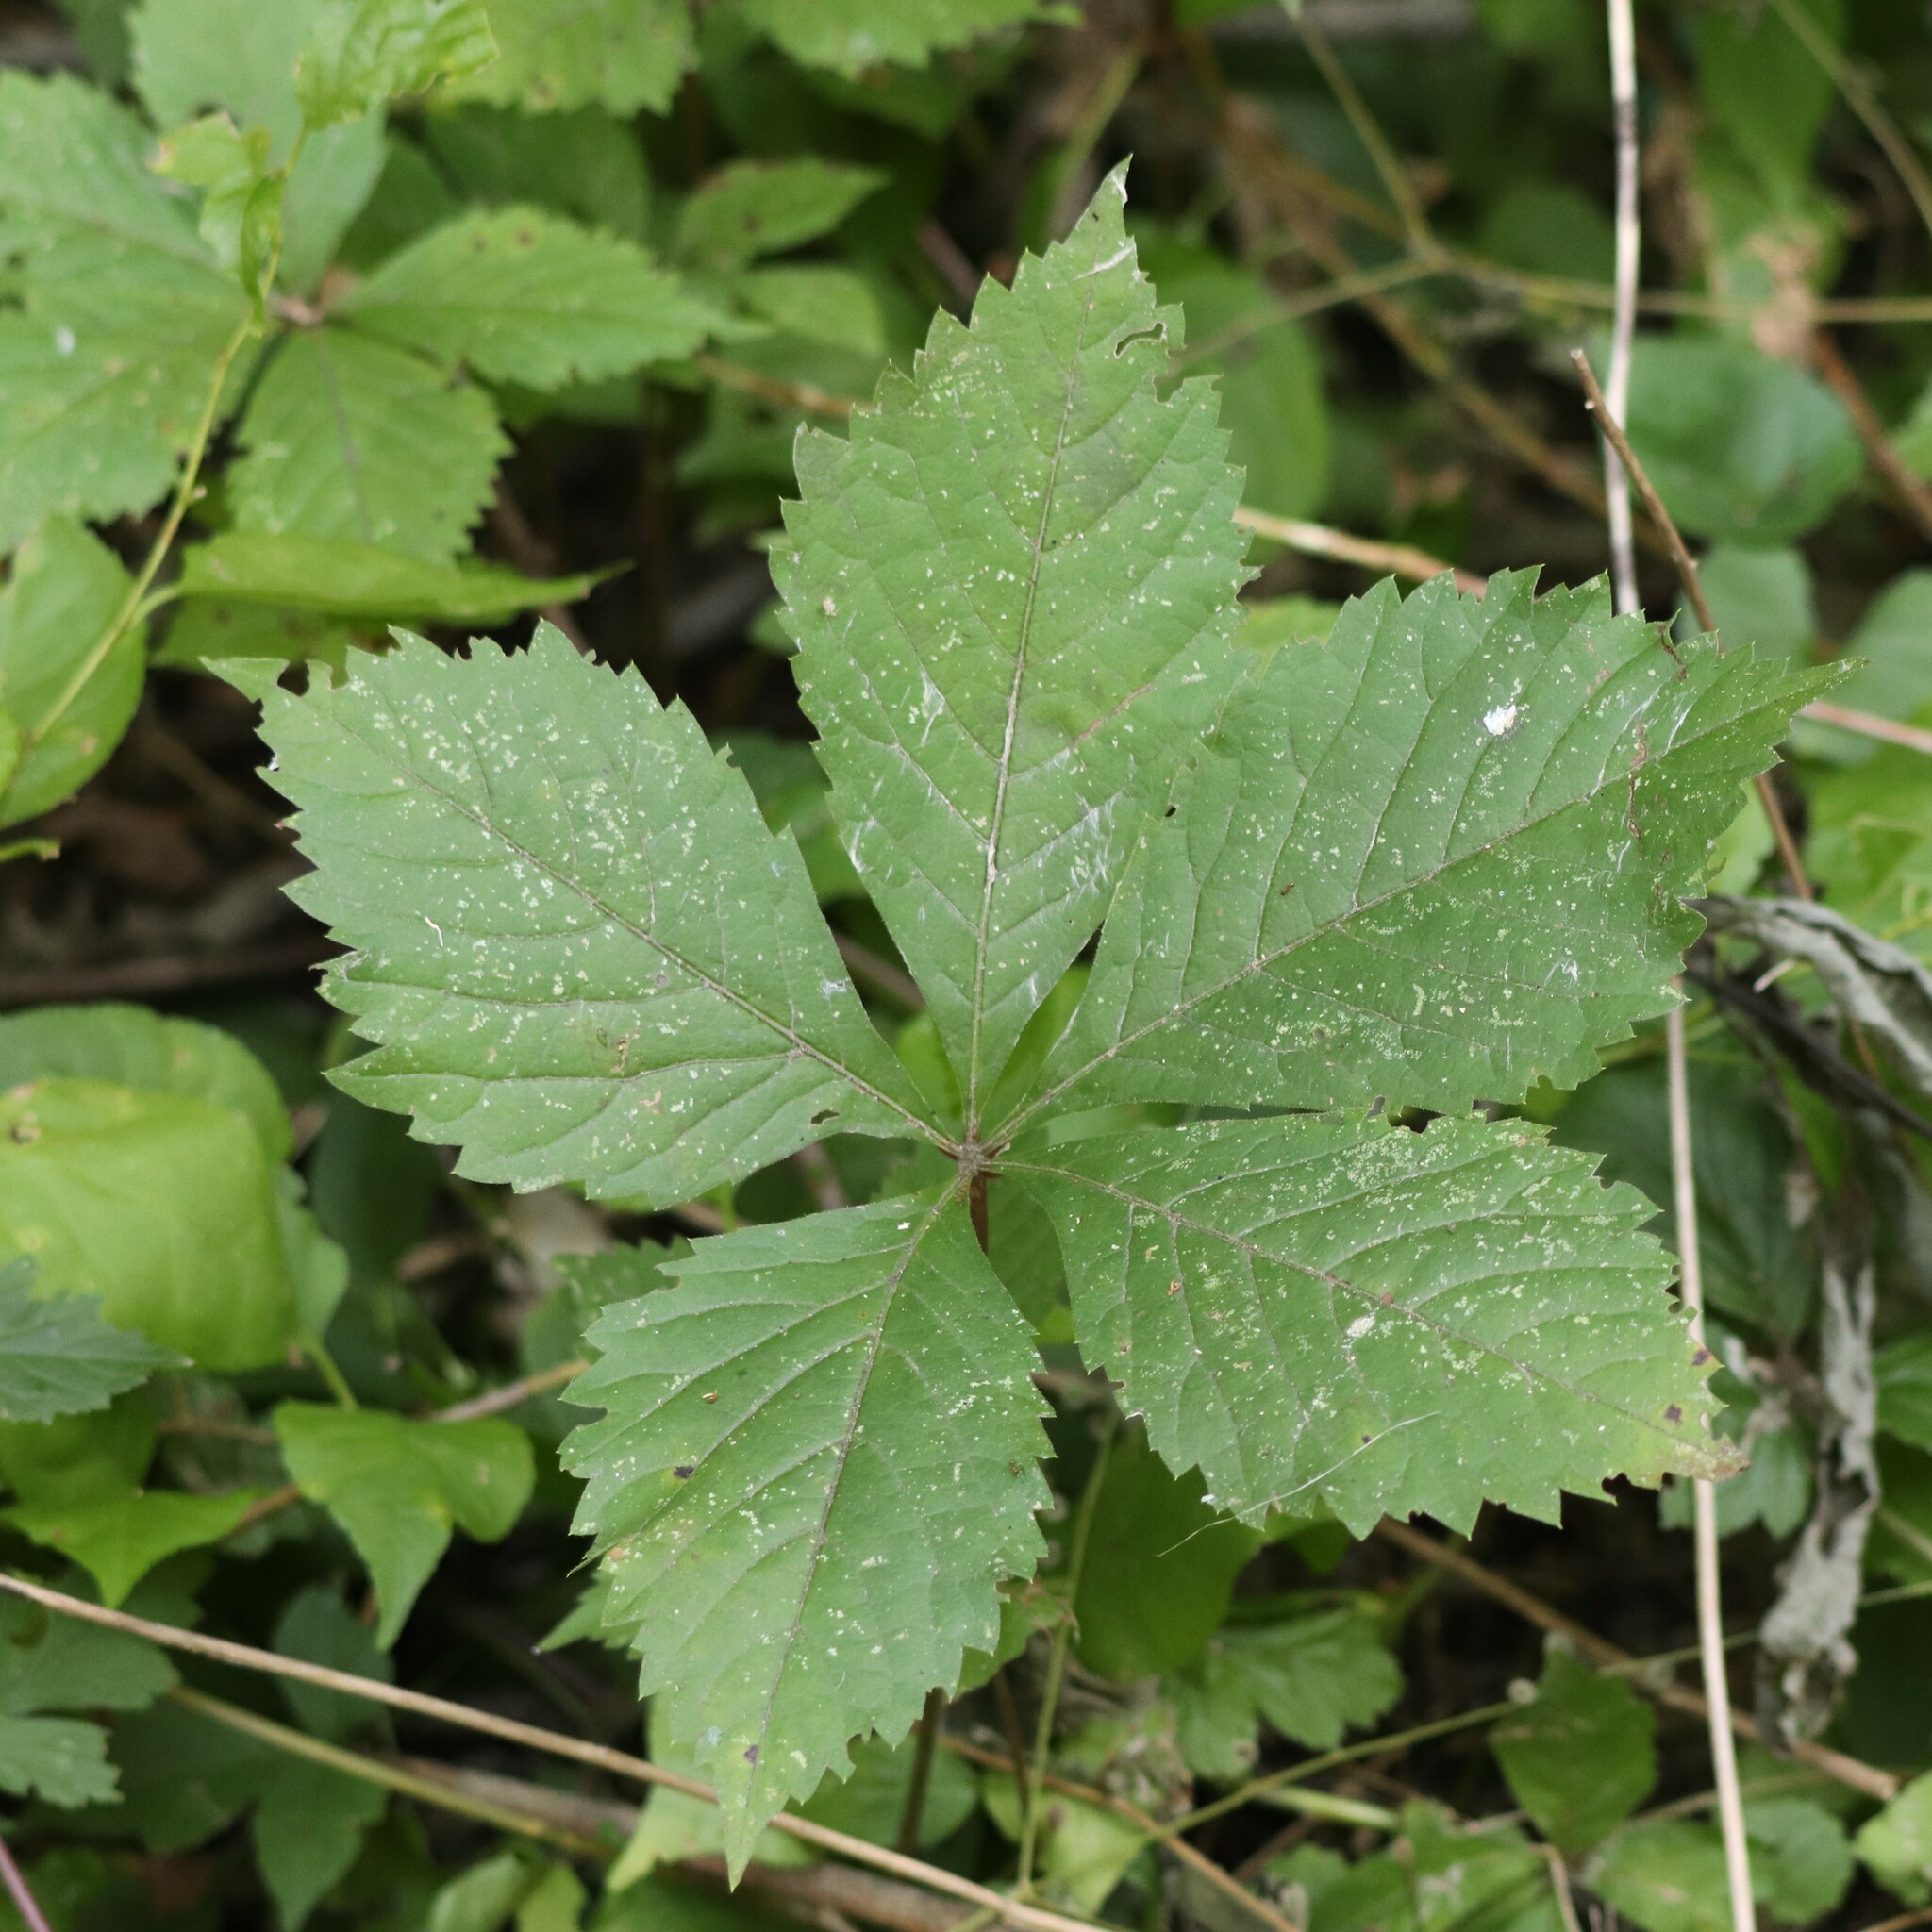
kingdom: Plantae
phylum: Tracheophyta
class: Magnoliopsida
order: Vitales
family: Vitaceae
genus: Parthenocissus
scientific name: Parthenocissus quinquefolia
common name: Virginia-creeper
